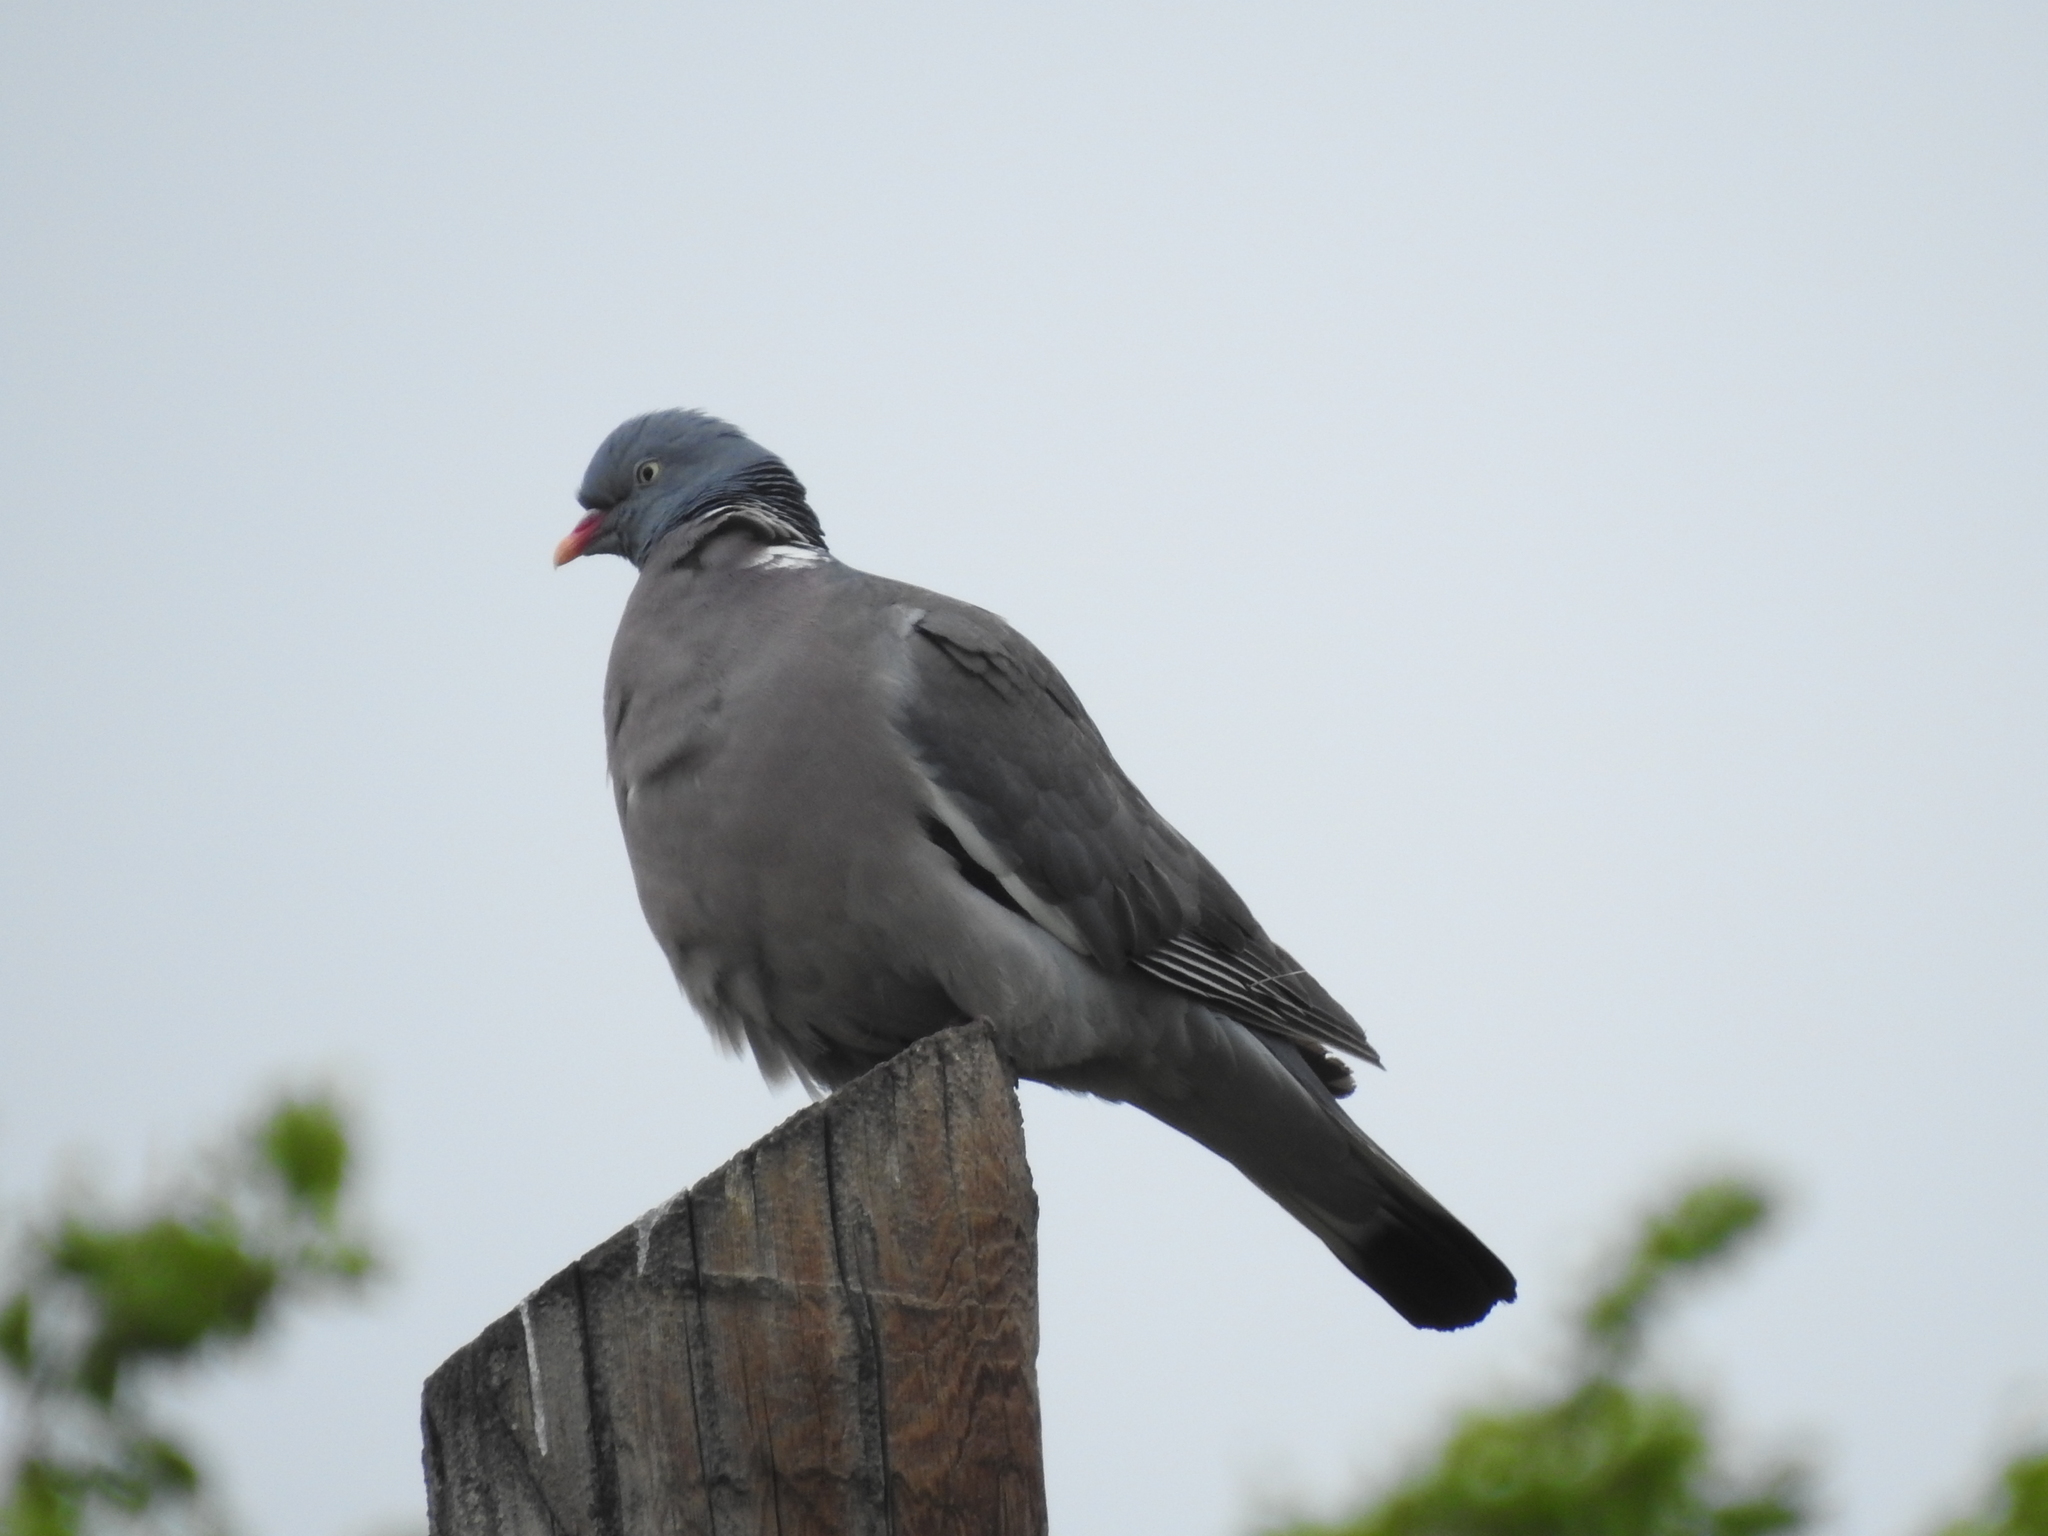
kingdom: Animalia
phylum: Chordata
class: Aves
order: Columbiformes
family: Columbidae
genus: Columba
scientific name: Columba palumbus
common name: Common wood pigeon
